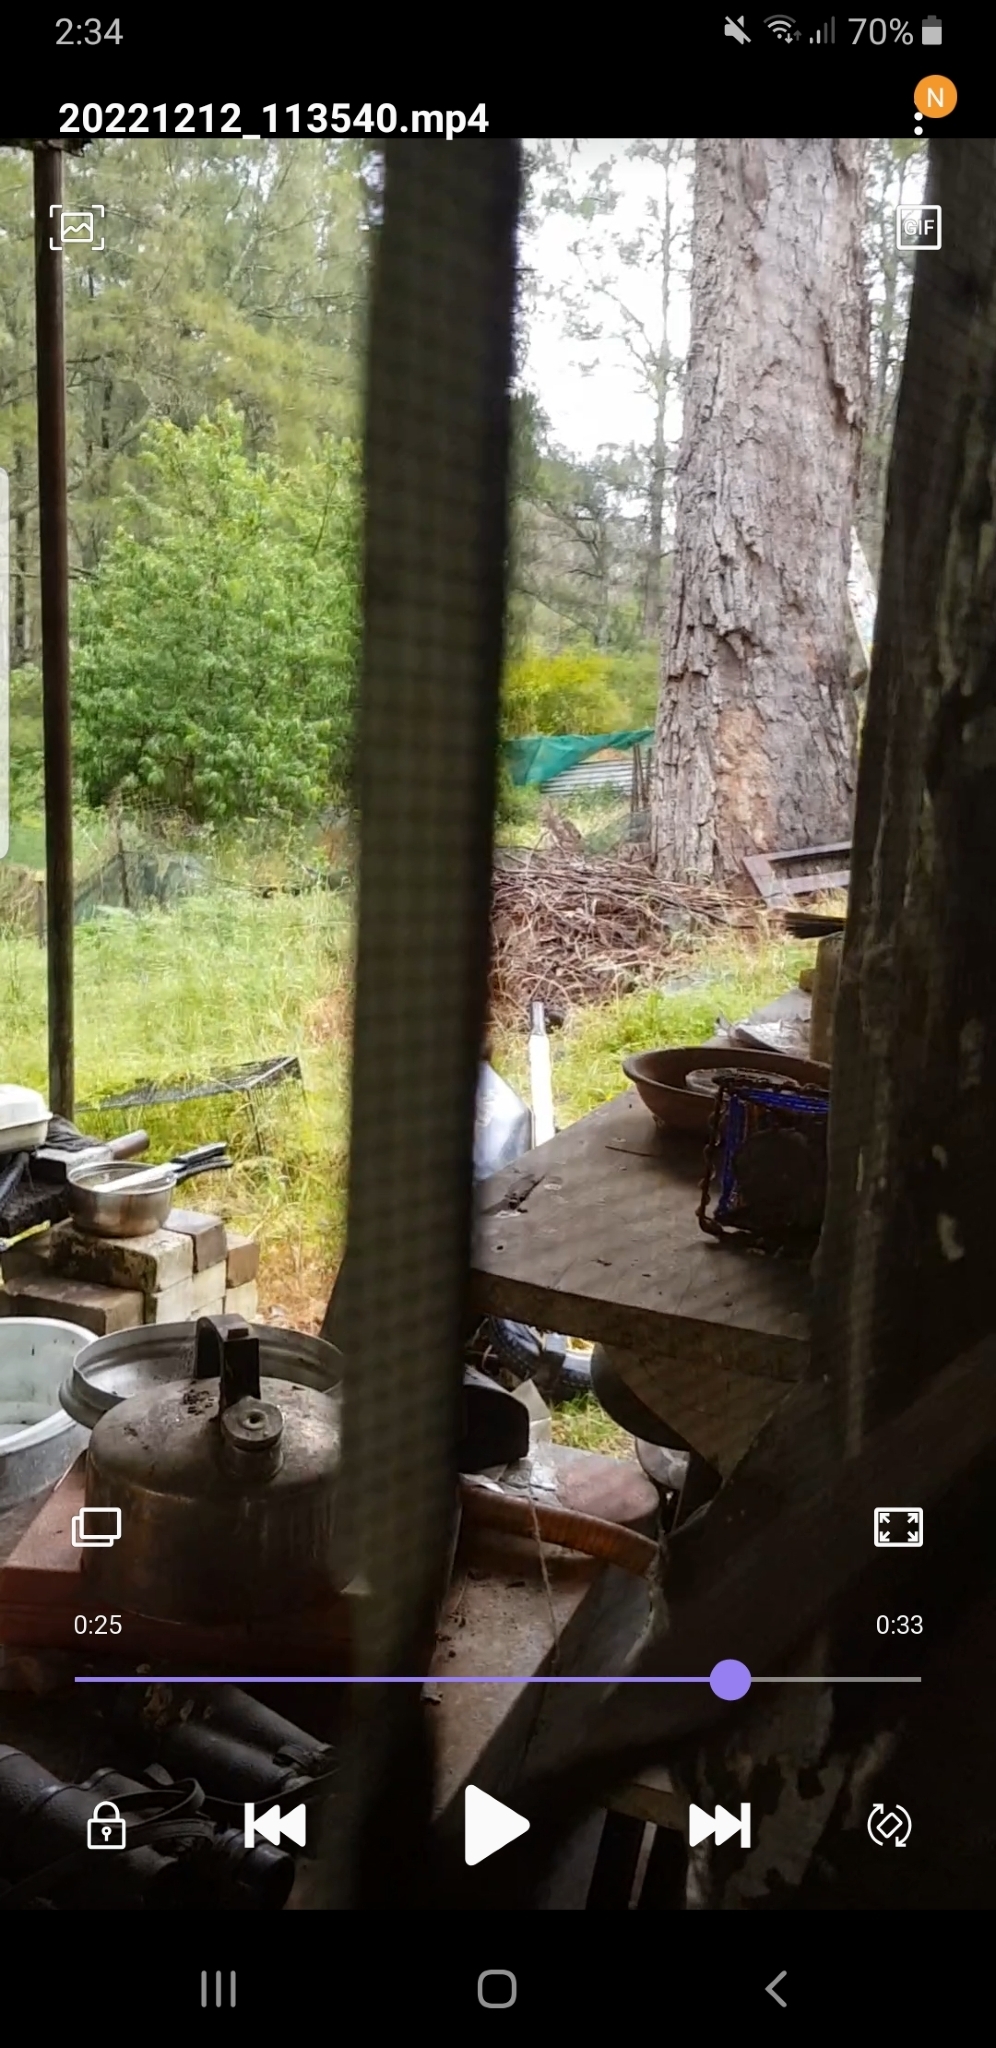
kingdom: Animalia
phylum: Chordata
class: Aves
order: Passeriformes
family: Rhipiduridae
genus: Rhipidura
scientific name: Rhipidura leucophrys
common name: Willie wagtail
